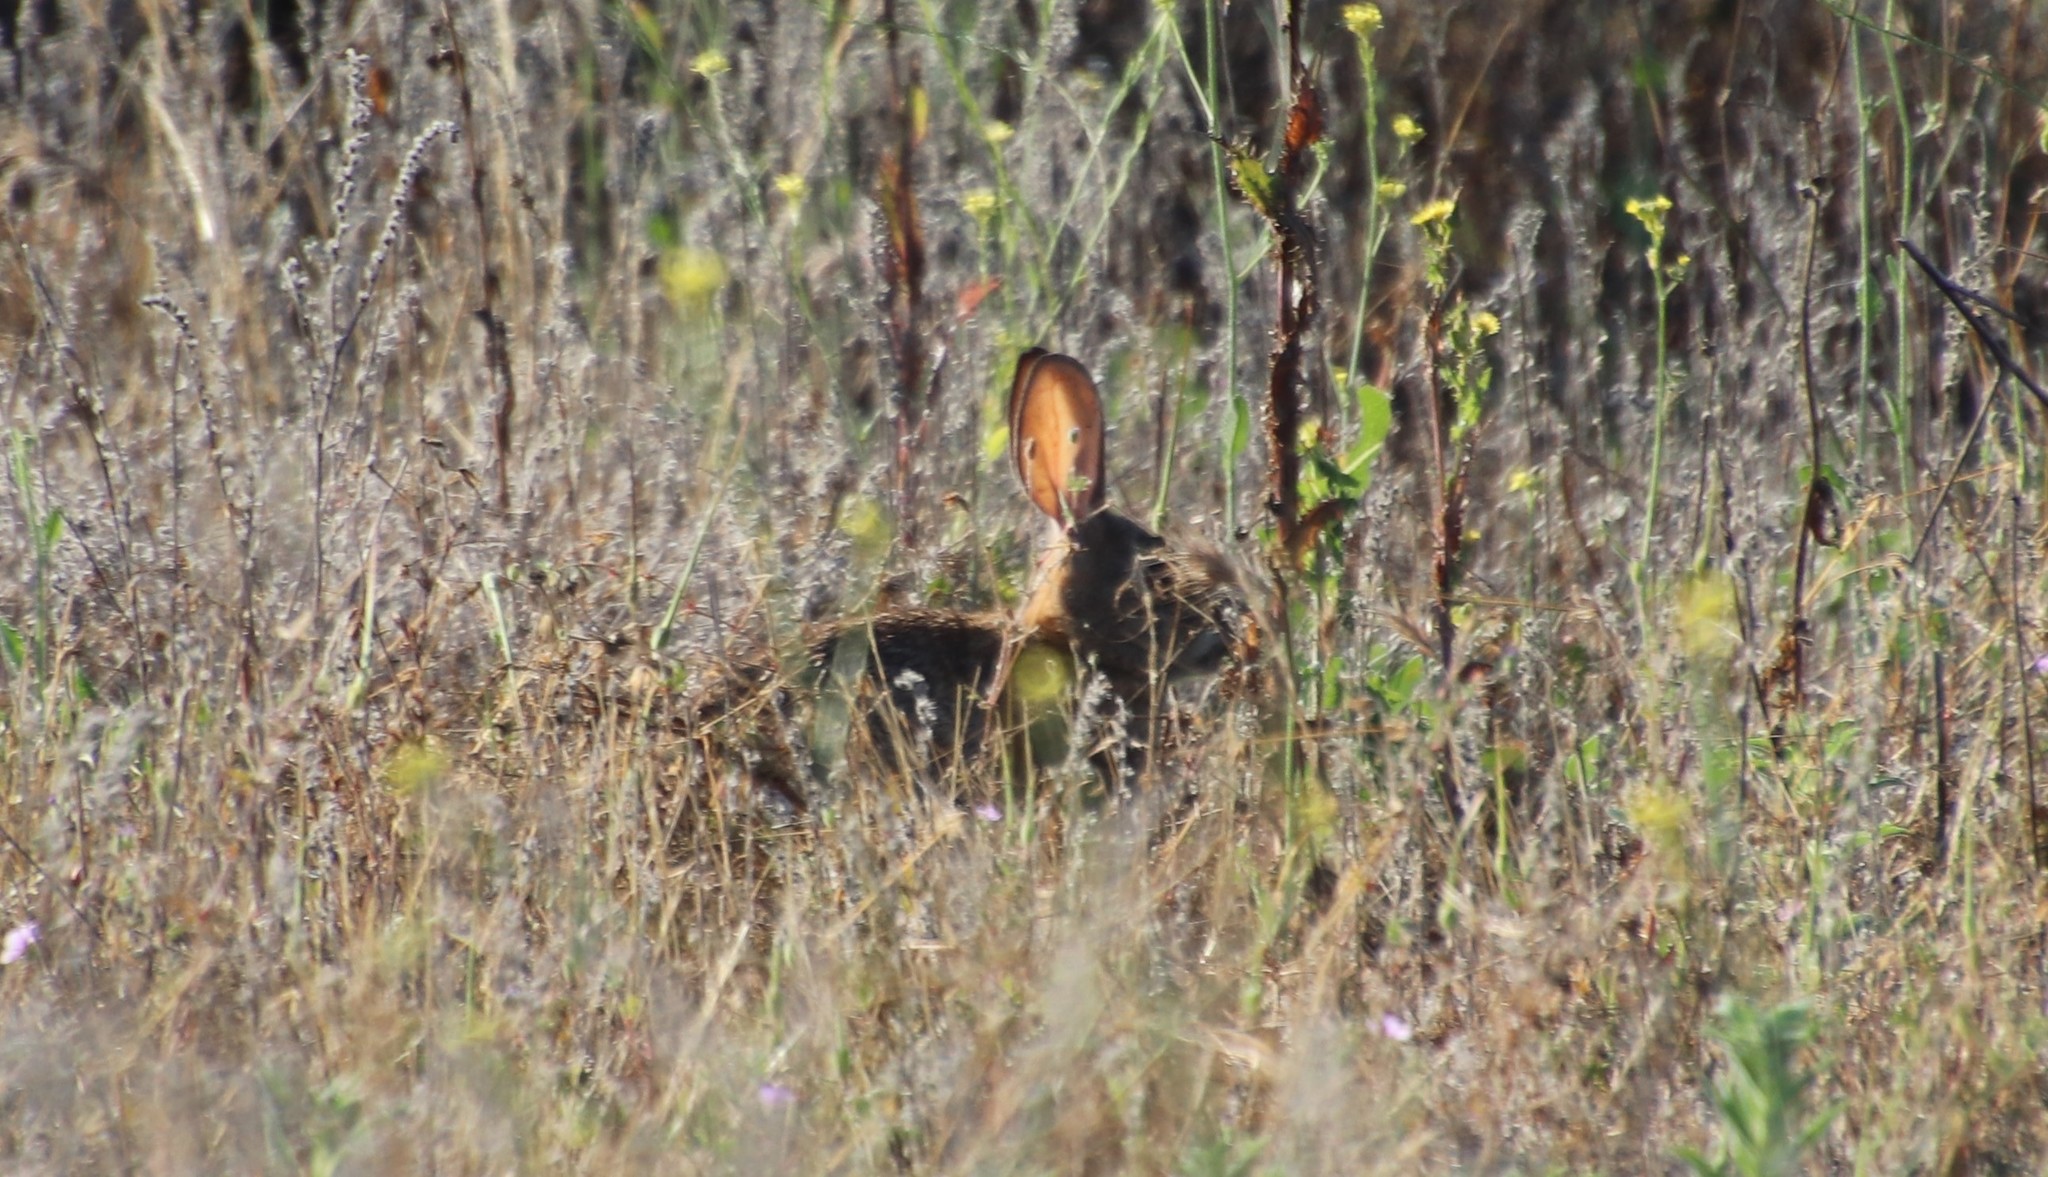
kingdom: Animalia
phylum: Chordata
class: Mammalia
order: Lagomorpha
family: Leporidae
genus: Sylvilagus
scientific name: Sylvilagus audubonii
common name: Desert cottontail
